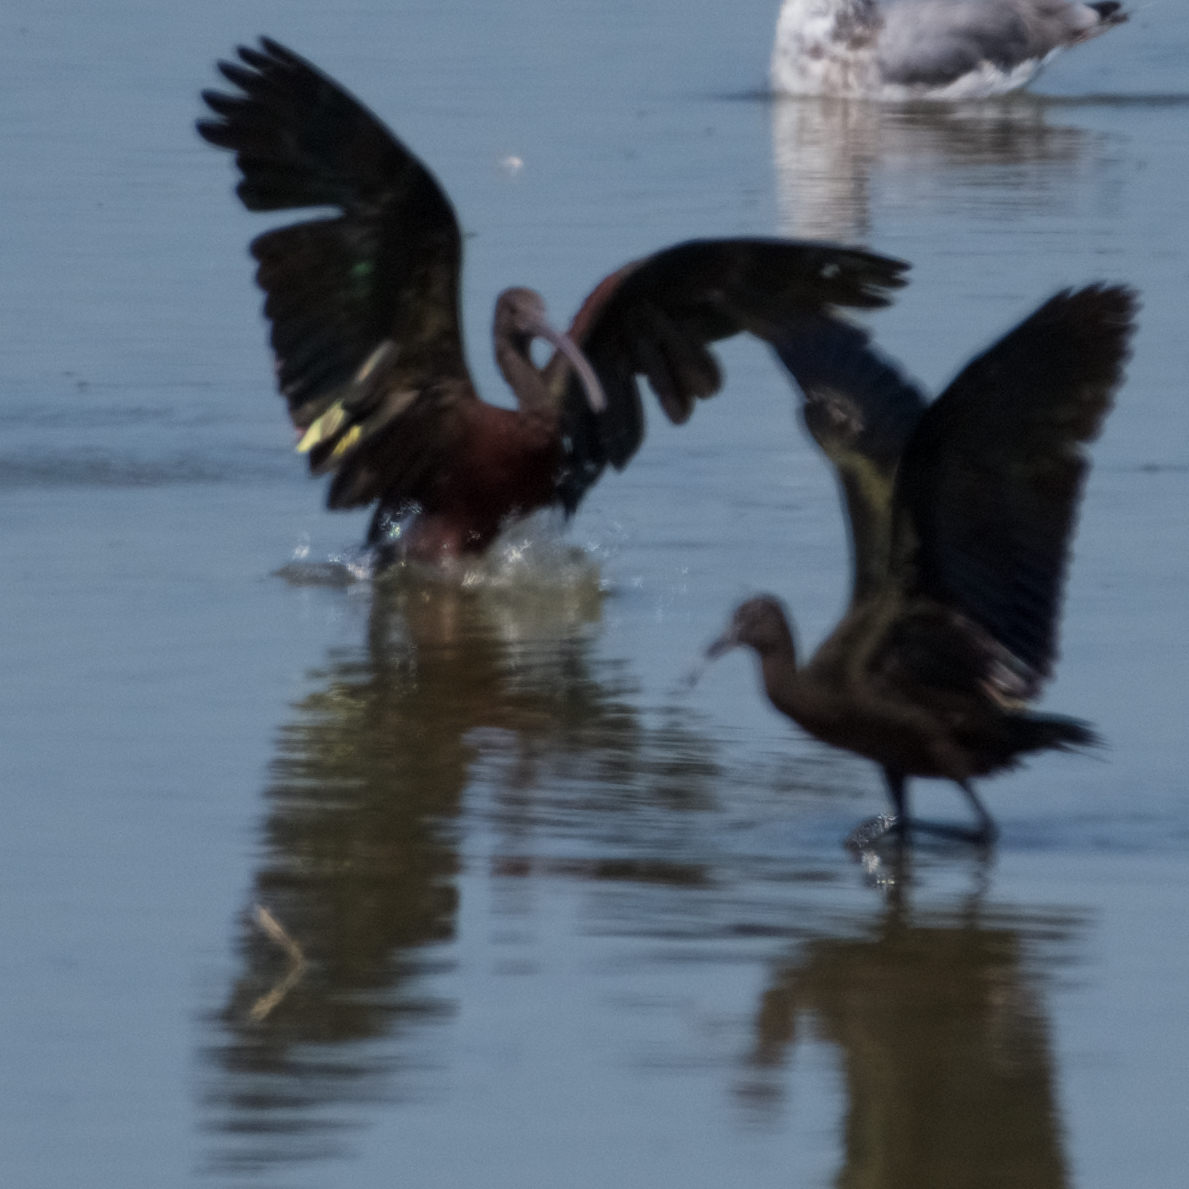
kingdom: Animalia
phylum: Chordata
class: Aves
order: Pelecaniformes
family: Threskiornithidae
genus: Plegadis
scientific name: Plegadis chihi
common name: White-faced ibis
